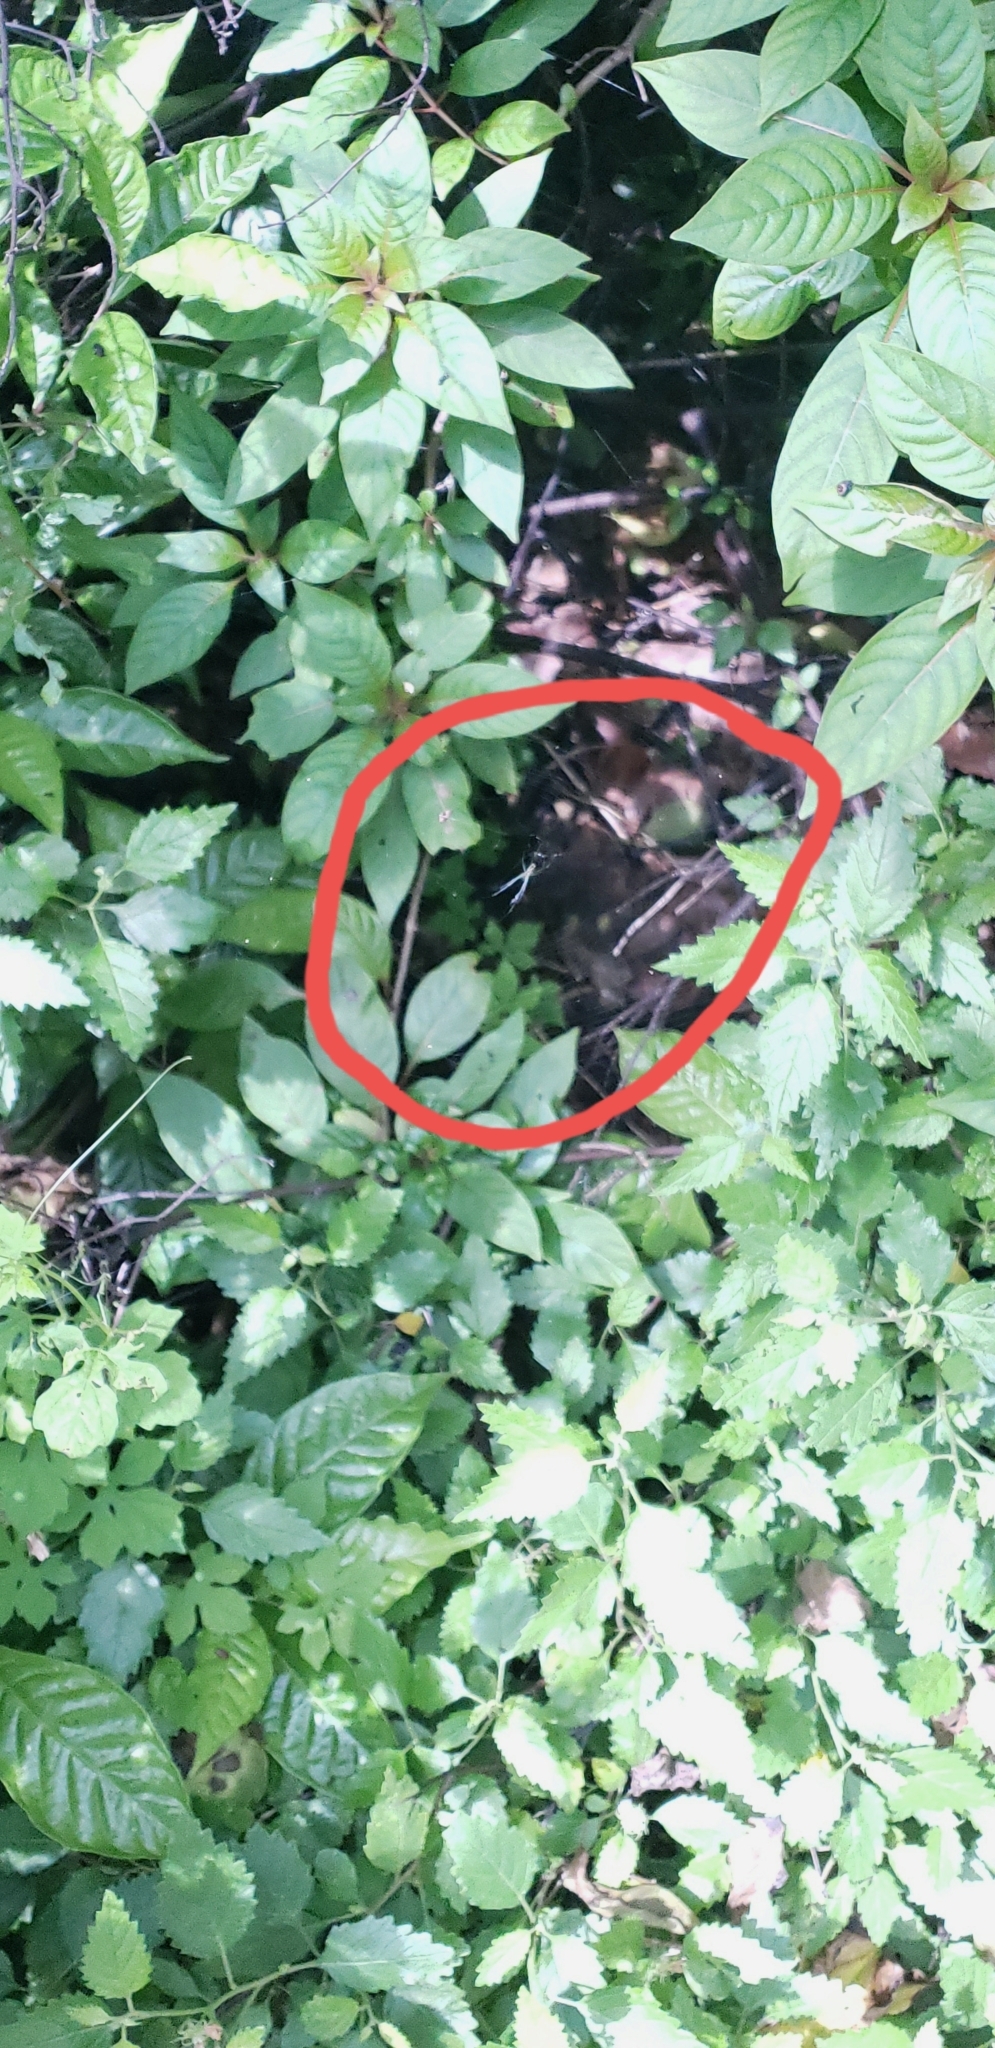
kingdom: Animalia
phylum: Arthropoda
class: Arachnida
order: Araneae
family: Tetragnathidae
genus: Leucauge
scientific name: Leucauge argyra
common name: Longjawed orb weavers
